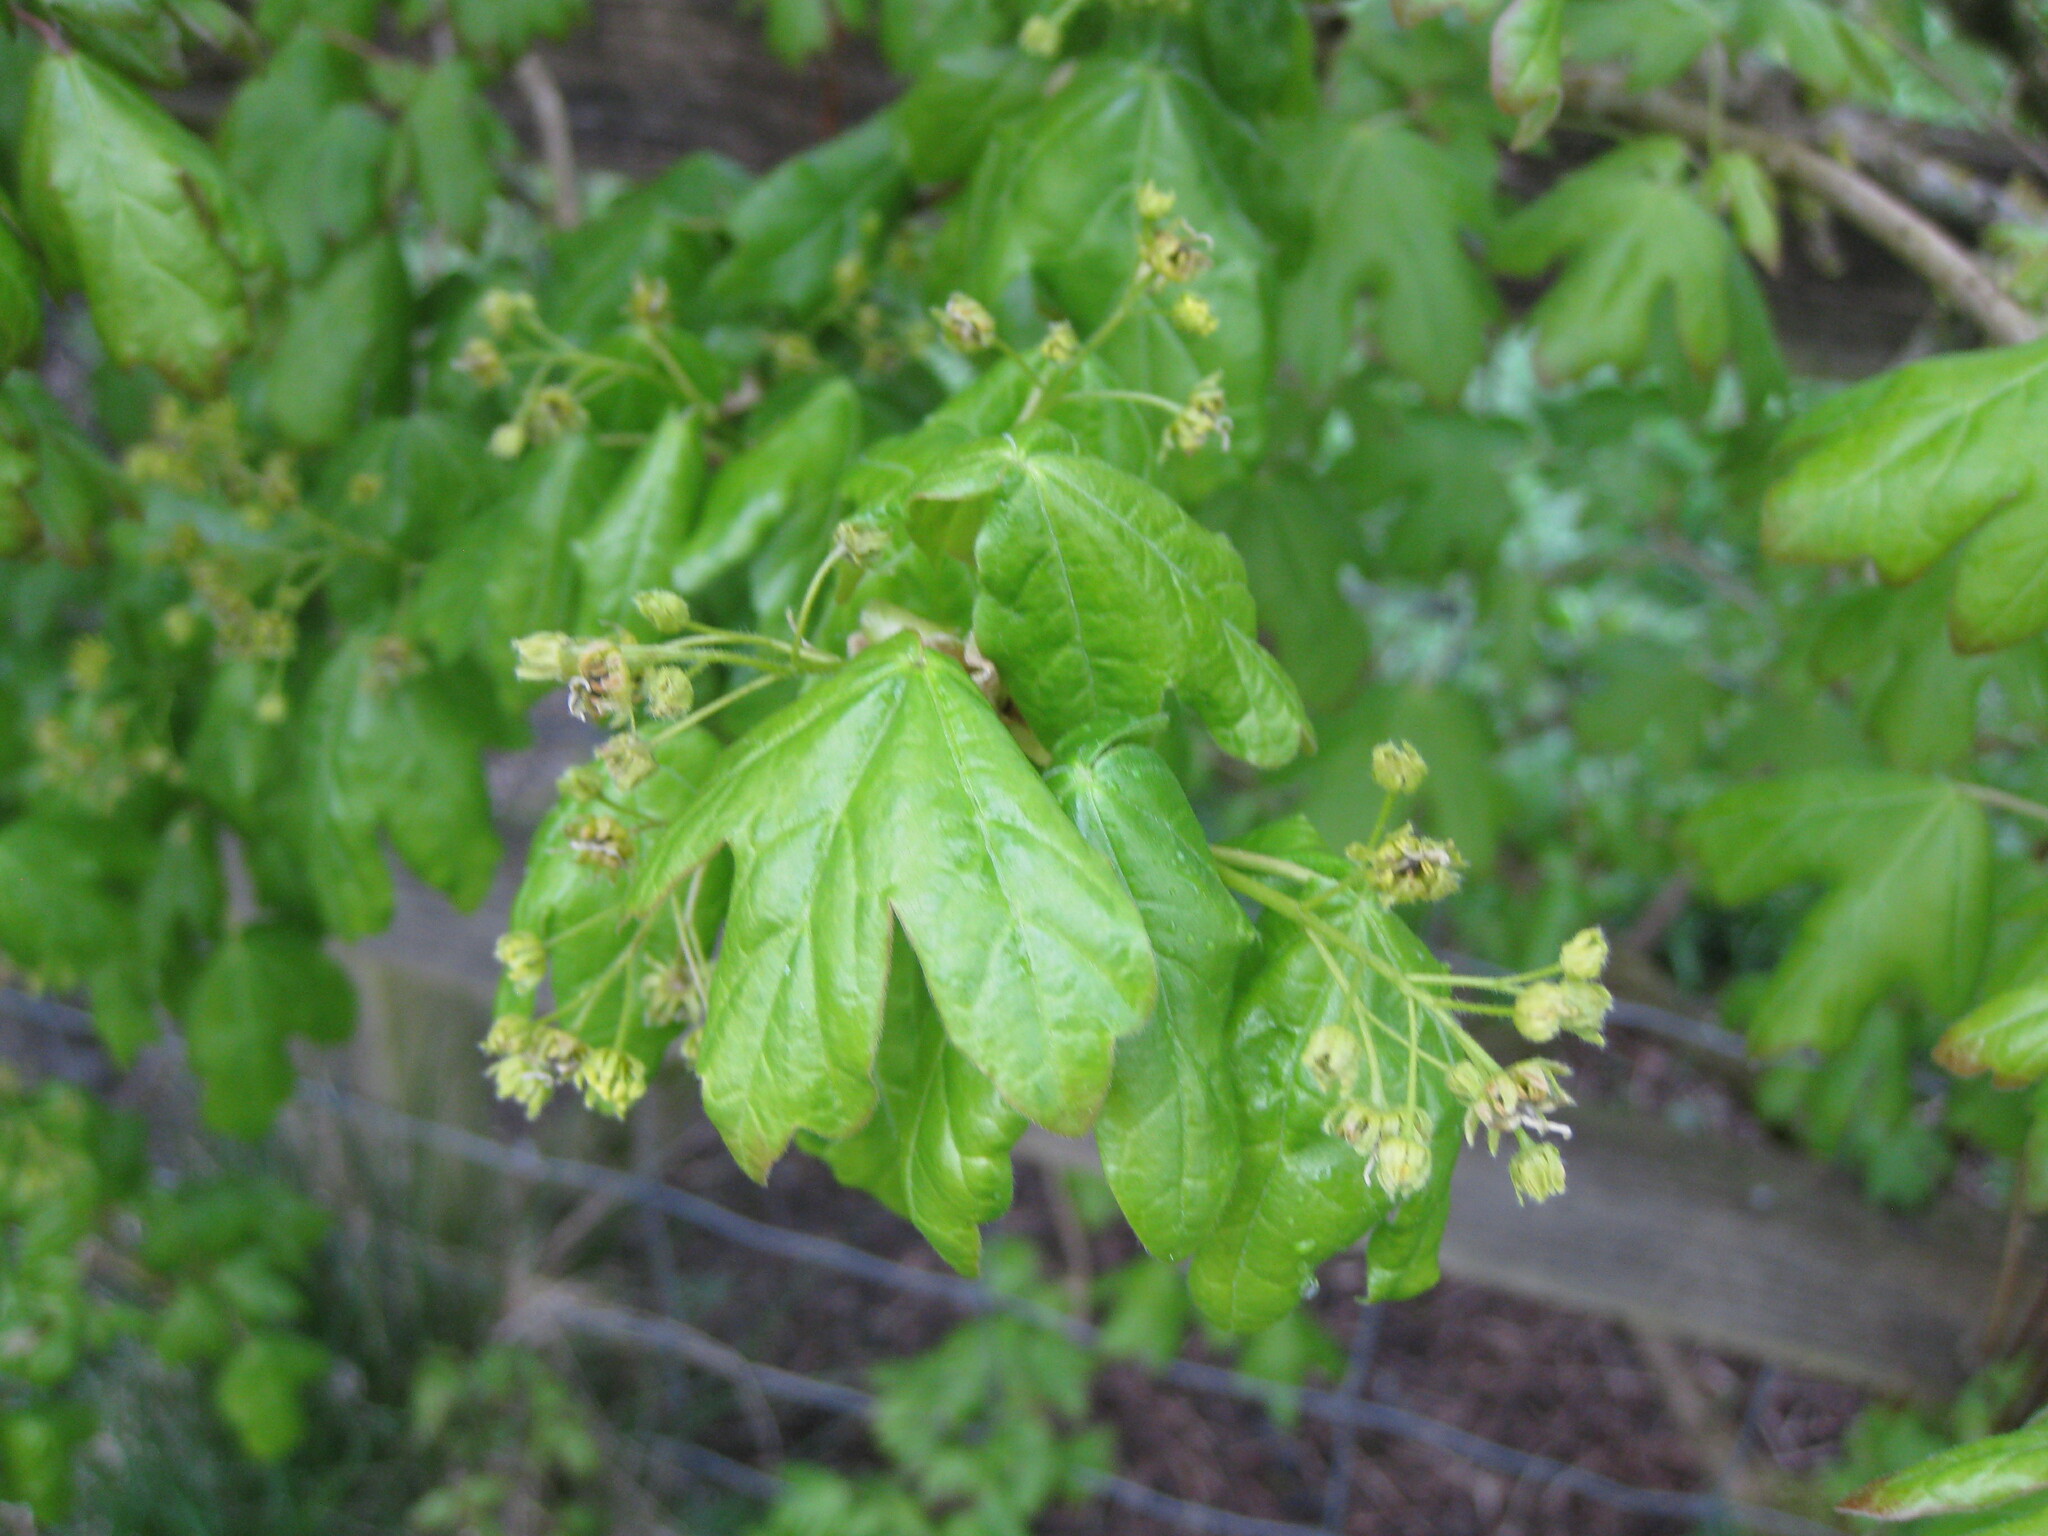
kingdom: Plantae
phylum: Tracheophyta
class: Magnoliopsida
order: Sapindales
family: Sapindaceae
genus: Acer
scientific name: Acer campestre
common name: Field maple
